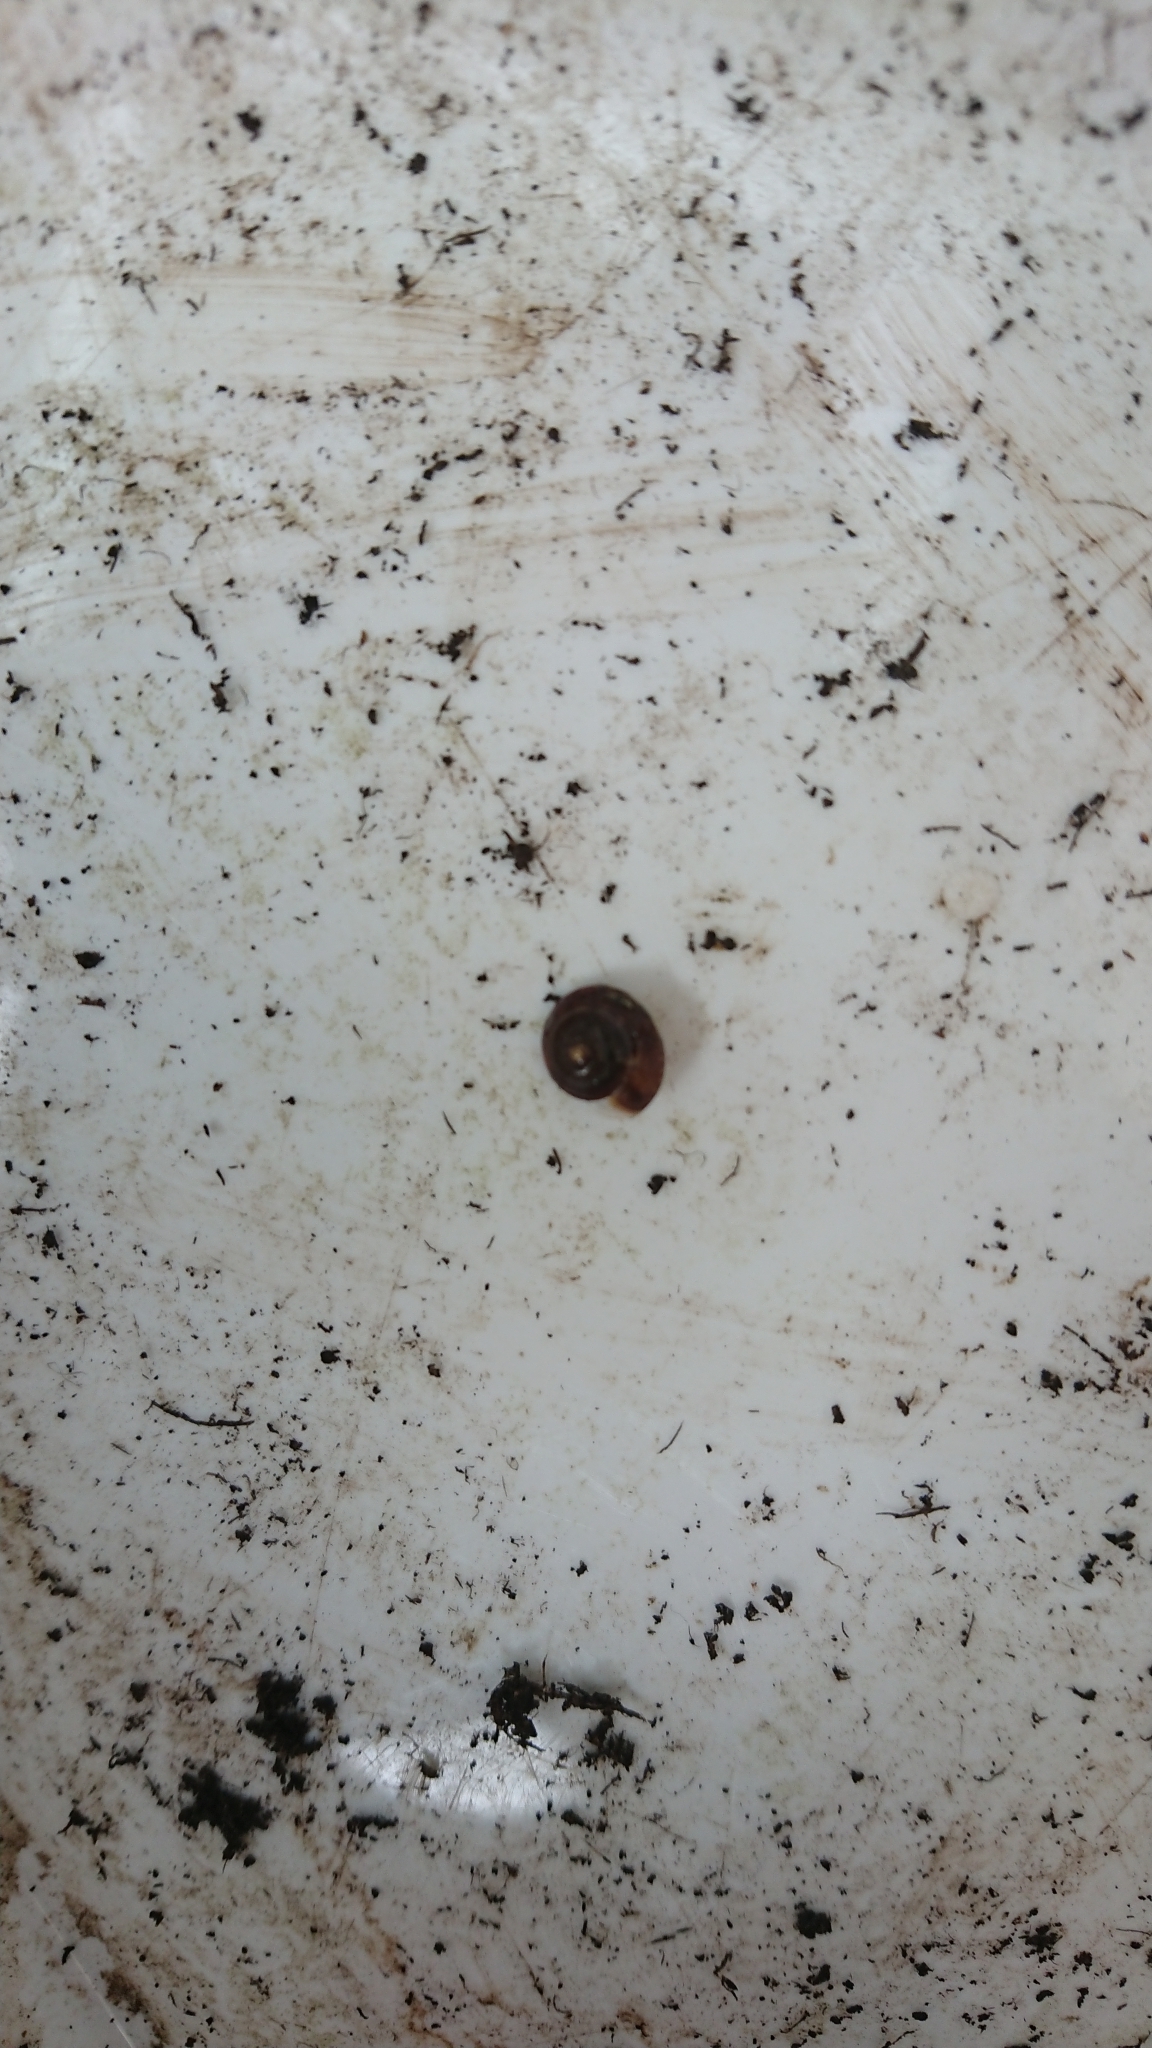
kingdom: Animalia
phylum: Mollusca
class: Gastropoda
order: Stylommatophora
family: Hygromiidae
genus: Hygromia
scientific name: Hygromia cinctella
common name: Girdled snail
